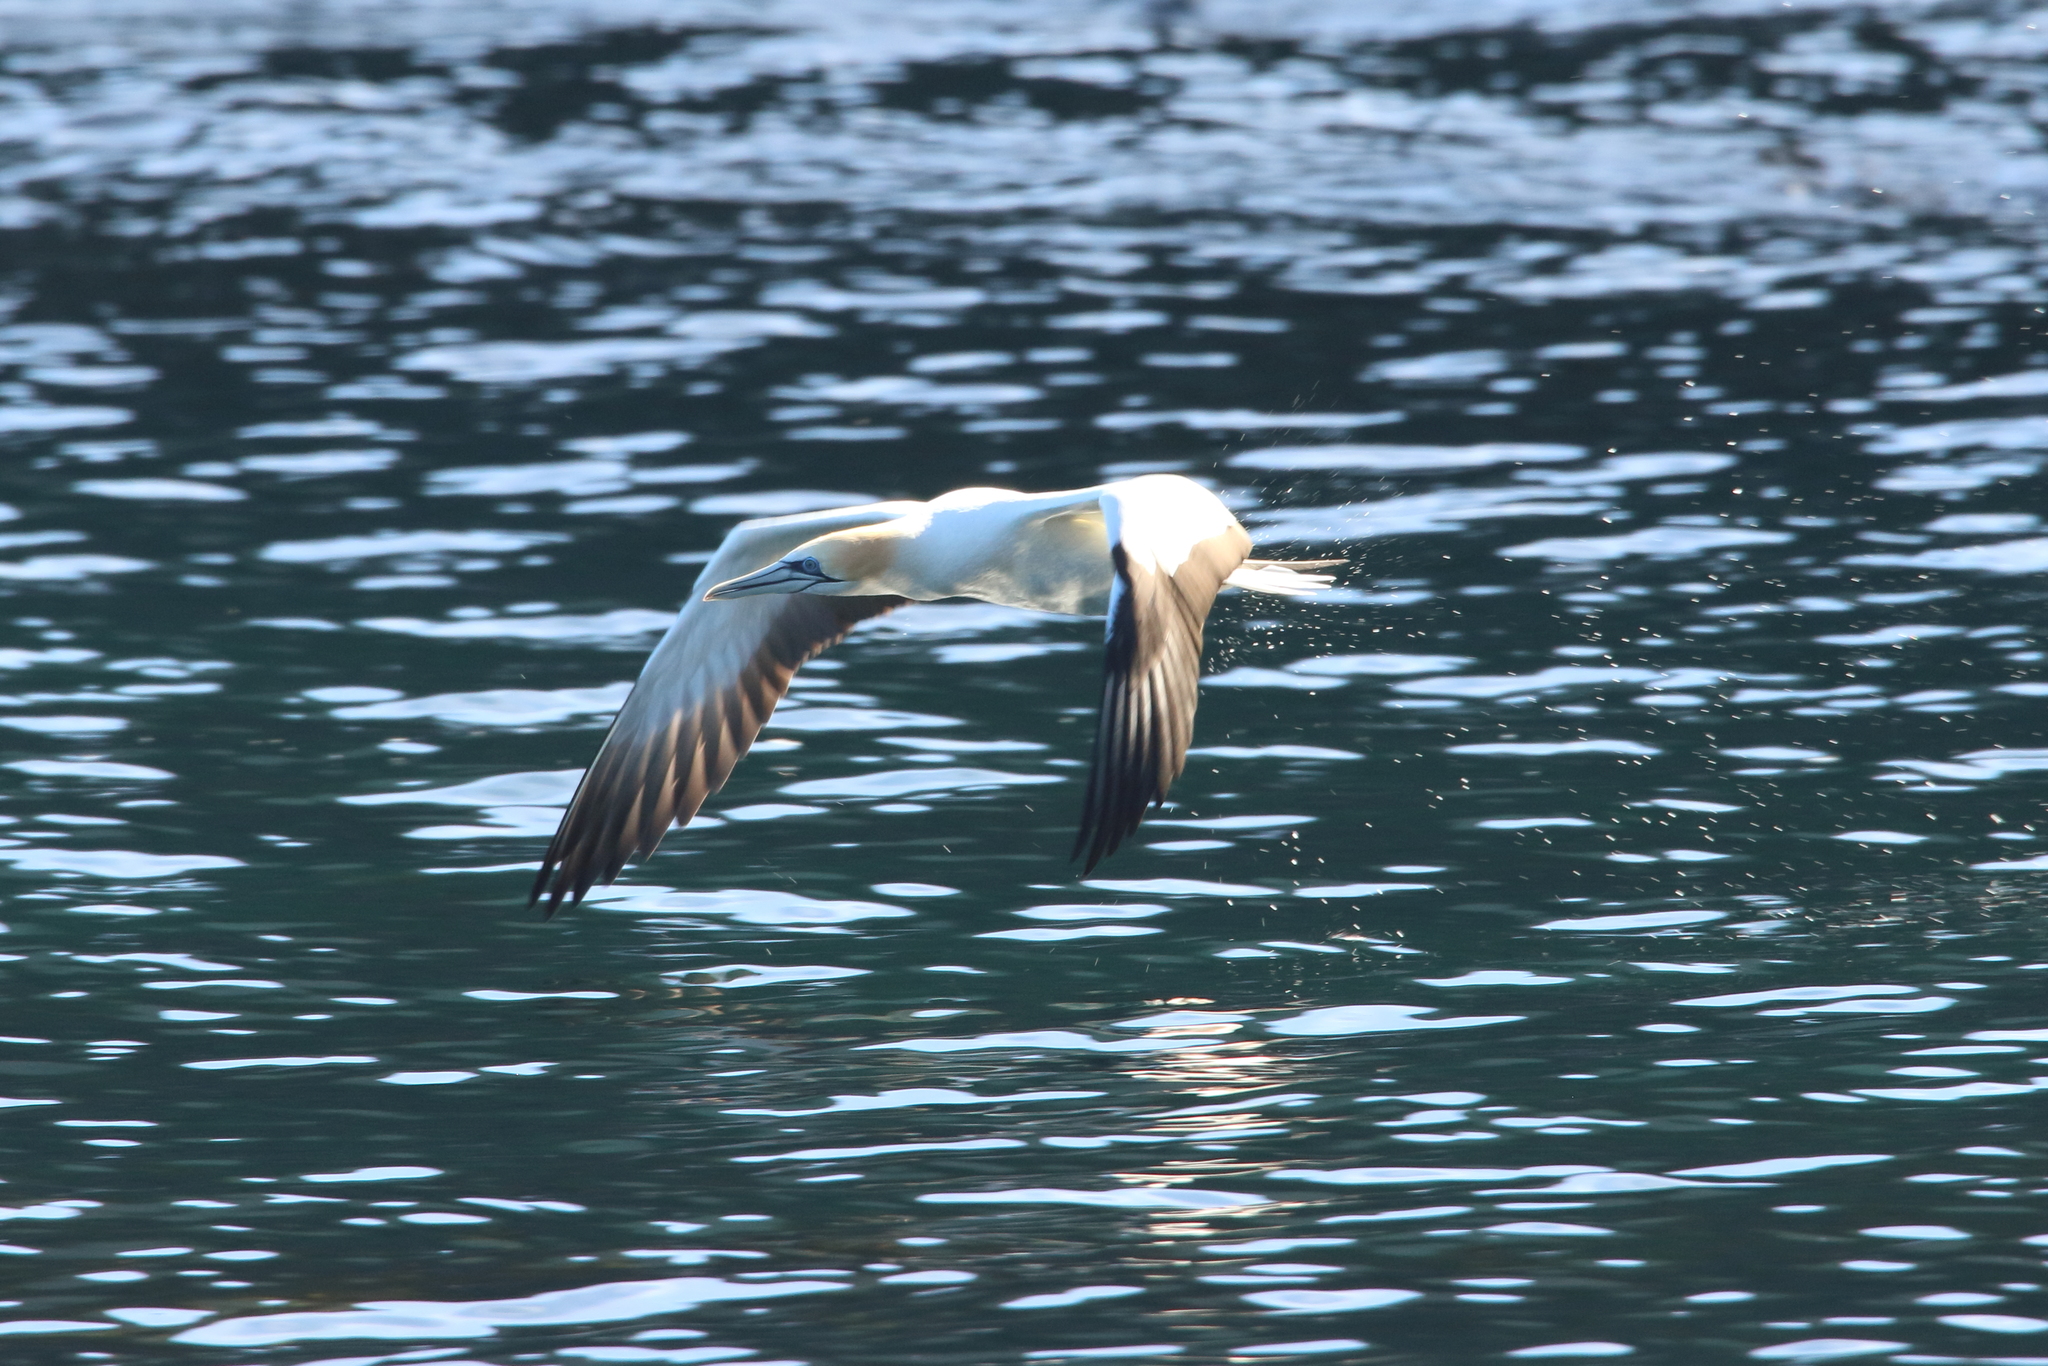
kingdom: Animalia
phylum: Chordata
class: Aves
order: Suliformes
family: Sulidae
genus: Morus
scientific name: Morus serrator
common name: Australasian gannet
